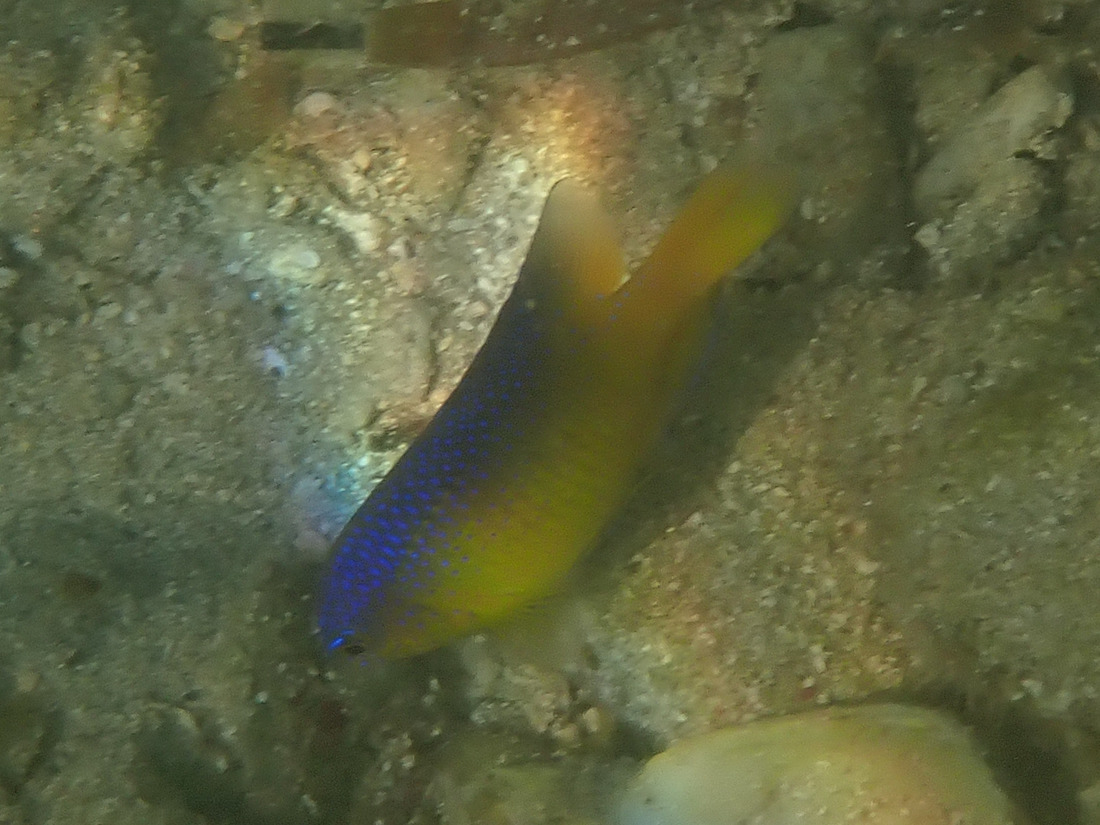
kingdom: Animalia
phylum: Chordata
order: Perciformes
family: Pomacentridae
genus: Stegastes
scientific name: Stegastes leucostictus
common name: Beaugregory
